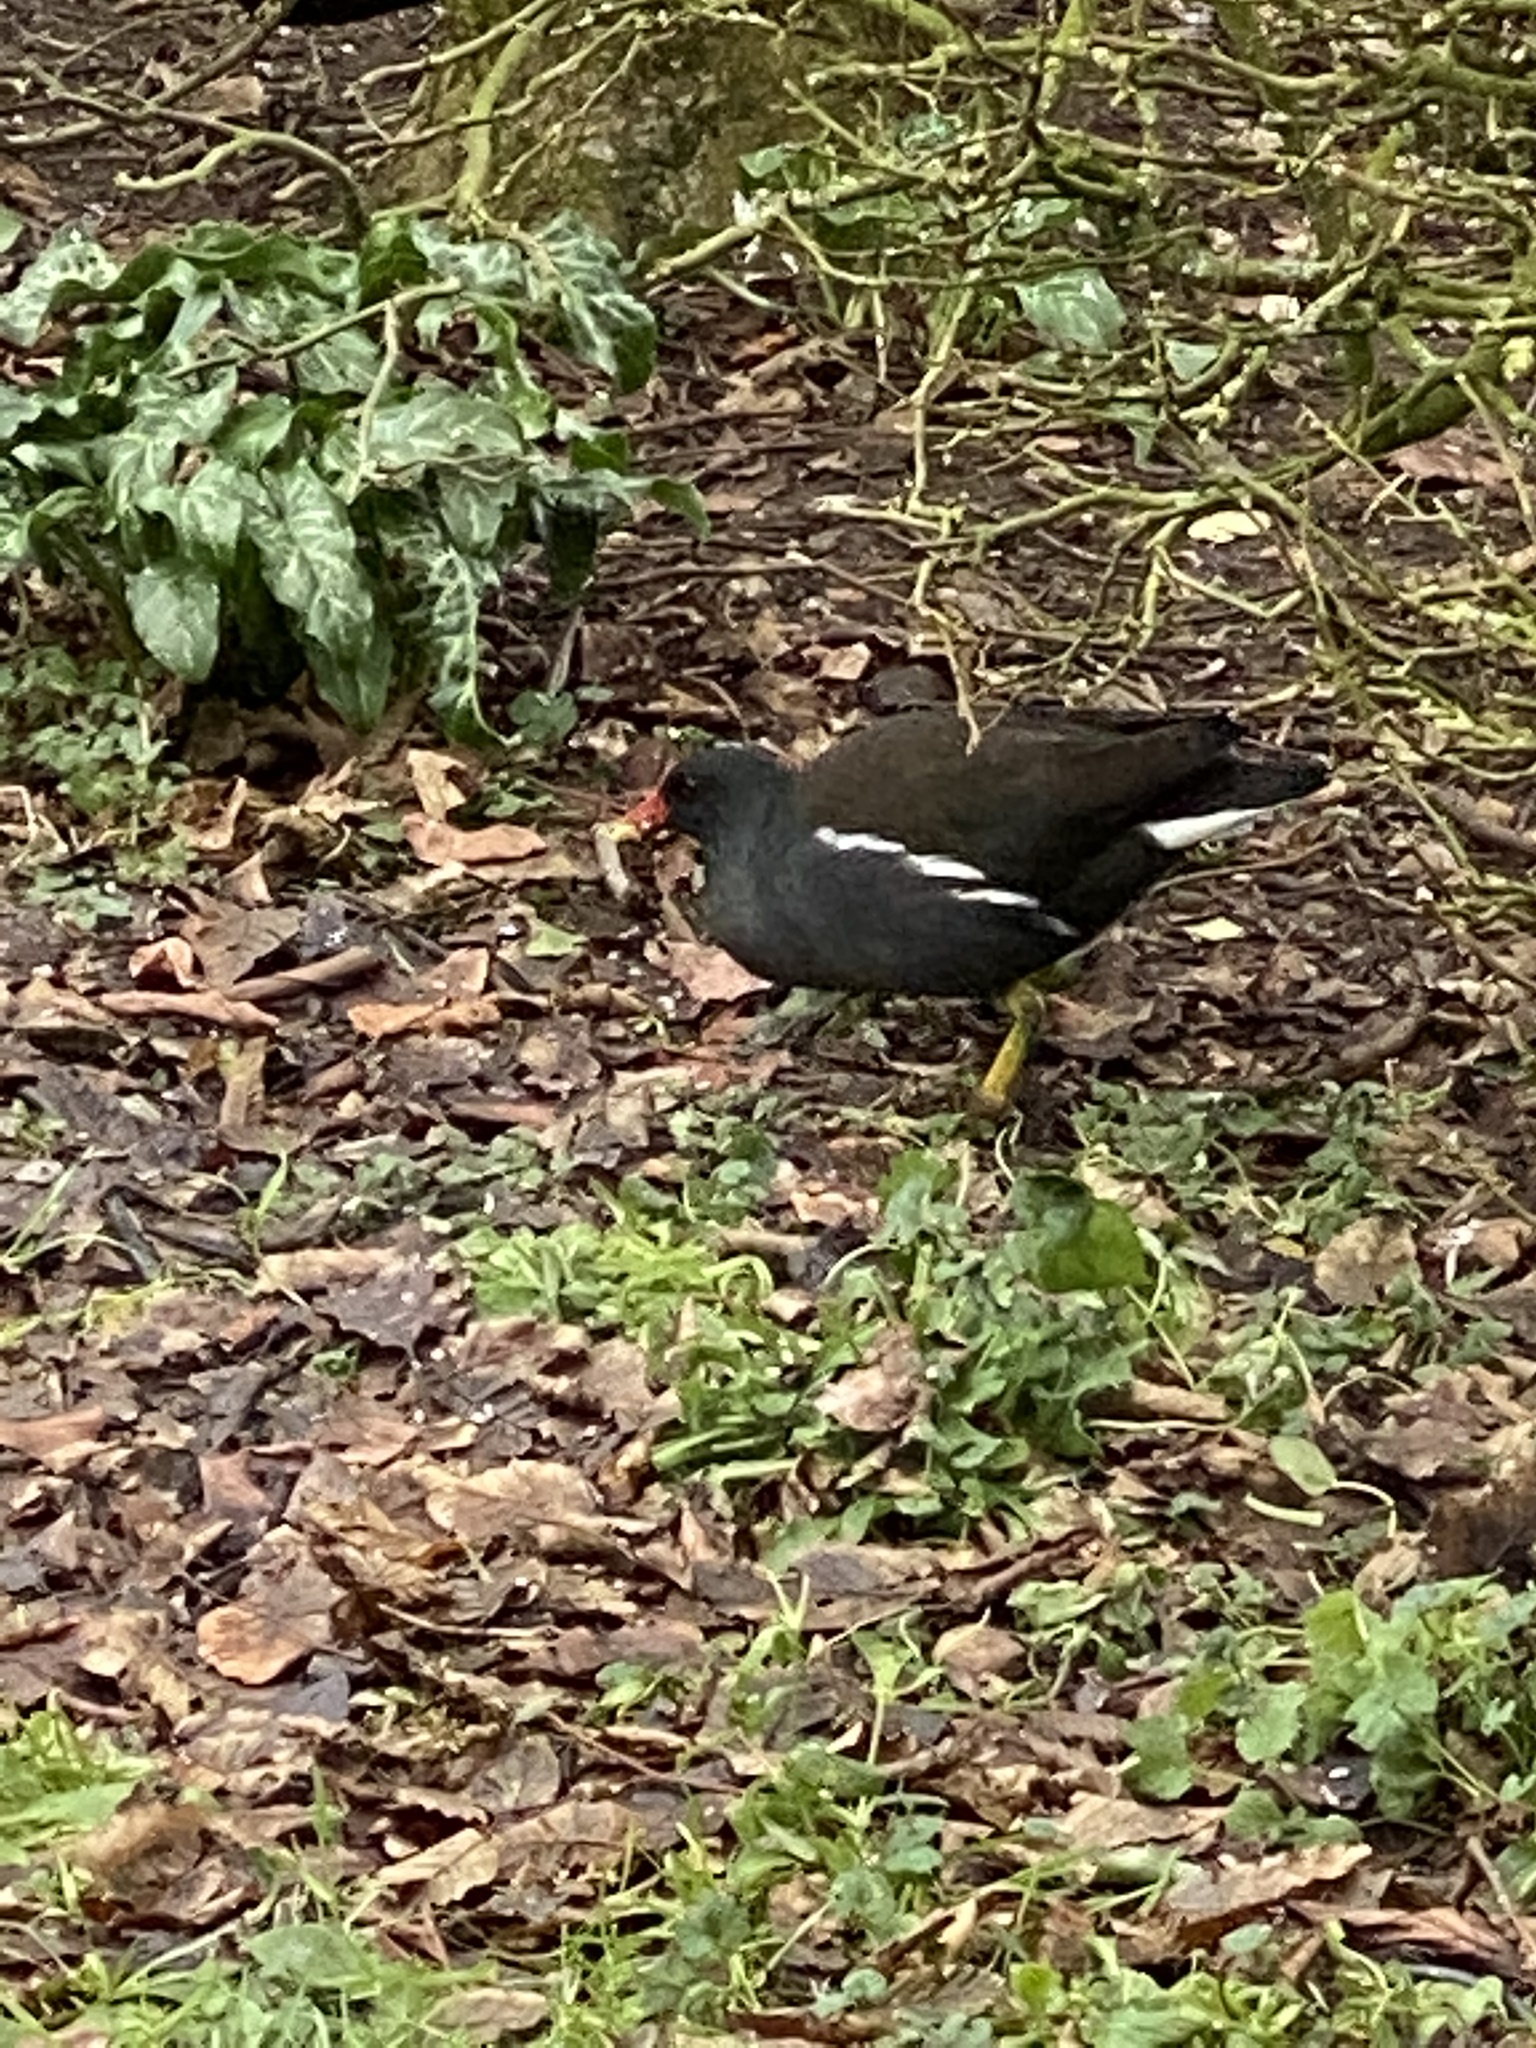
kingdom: Animalia
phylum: Chordata
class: Aves
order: Gruiformes
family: Rallidae
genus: Gallinula
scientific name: Gallinula chloropus
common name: Common moorhen
